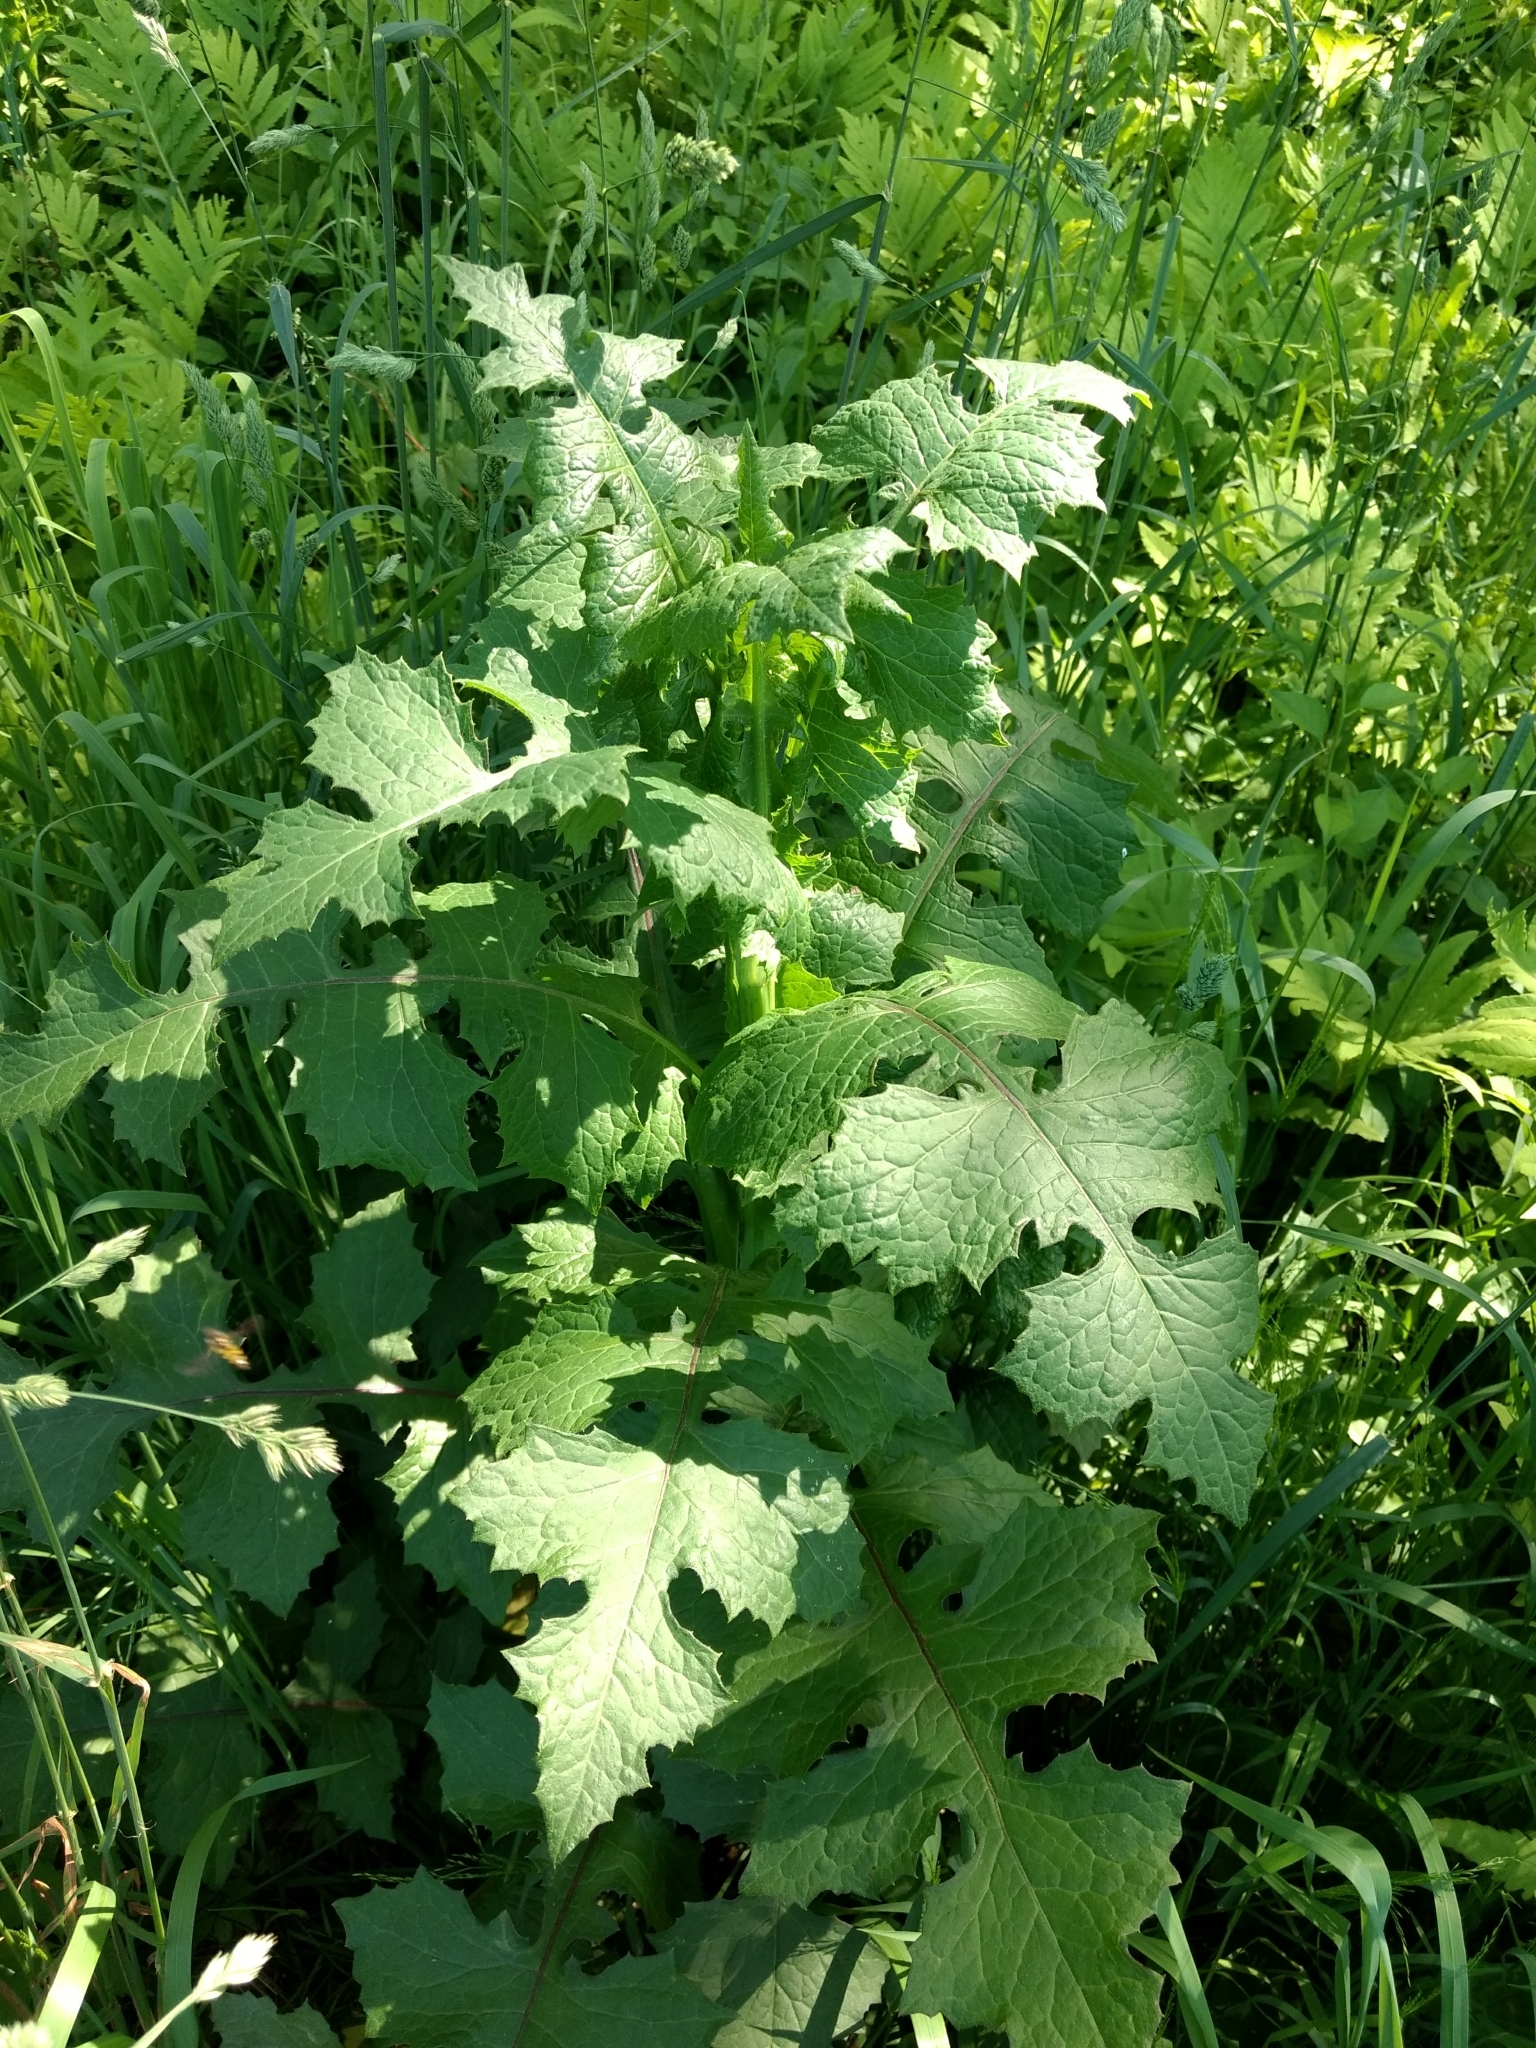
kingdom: Plantae
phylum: Tracheophyta
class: Magnoliopsida
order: Asterales
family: Asteraceae
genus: Lactuca
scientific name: Lactuca biennis
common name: Blue wood lettuce
